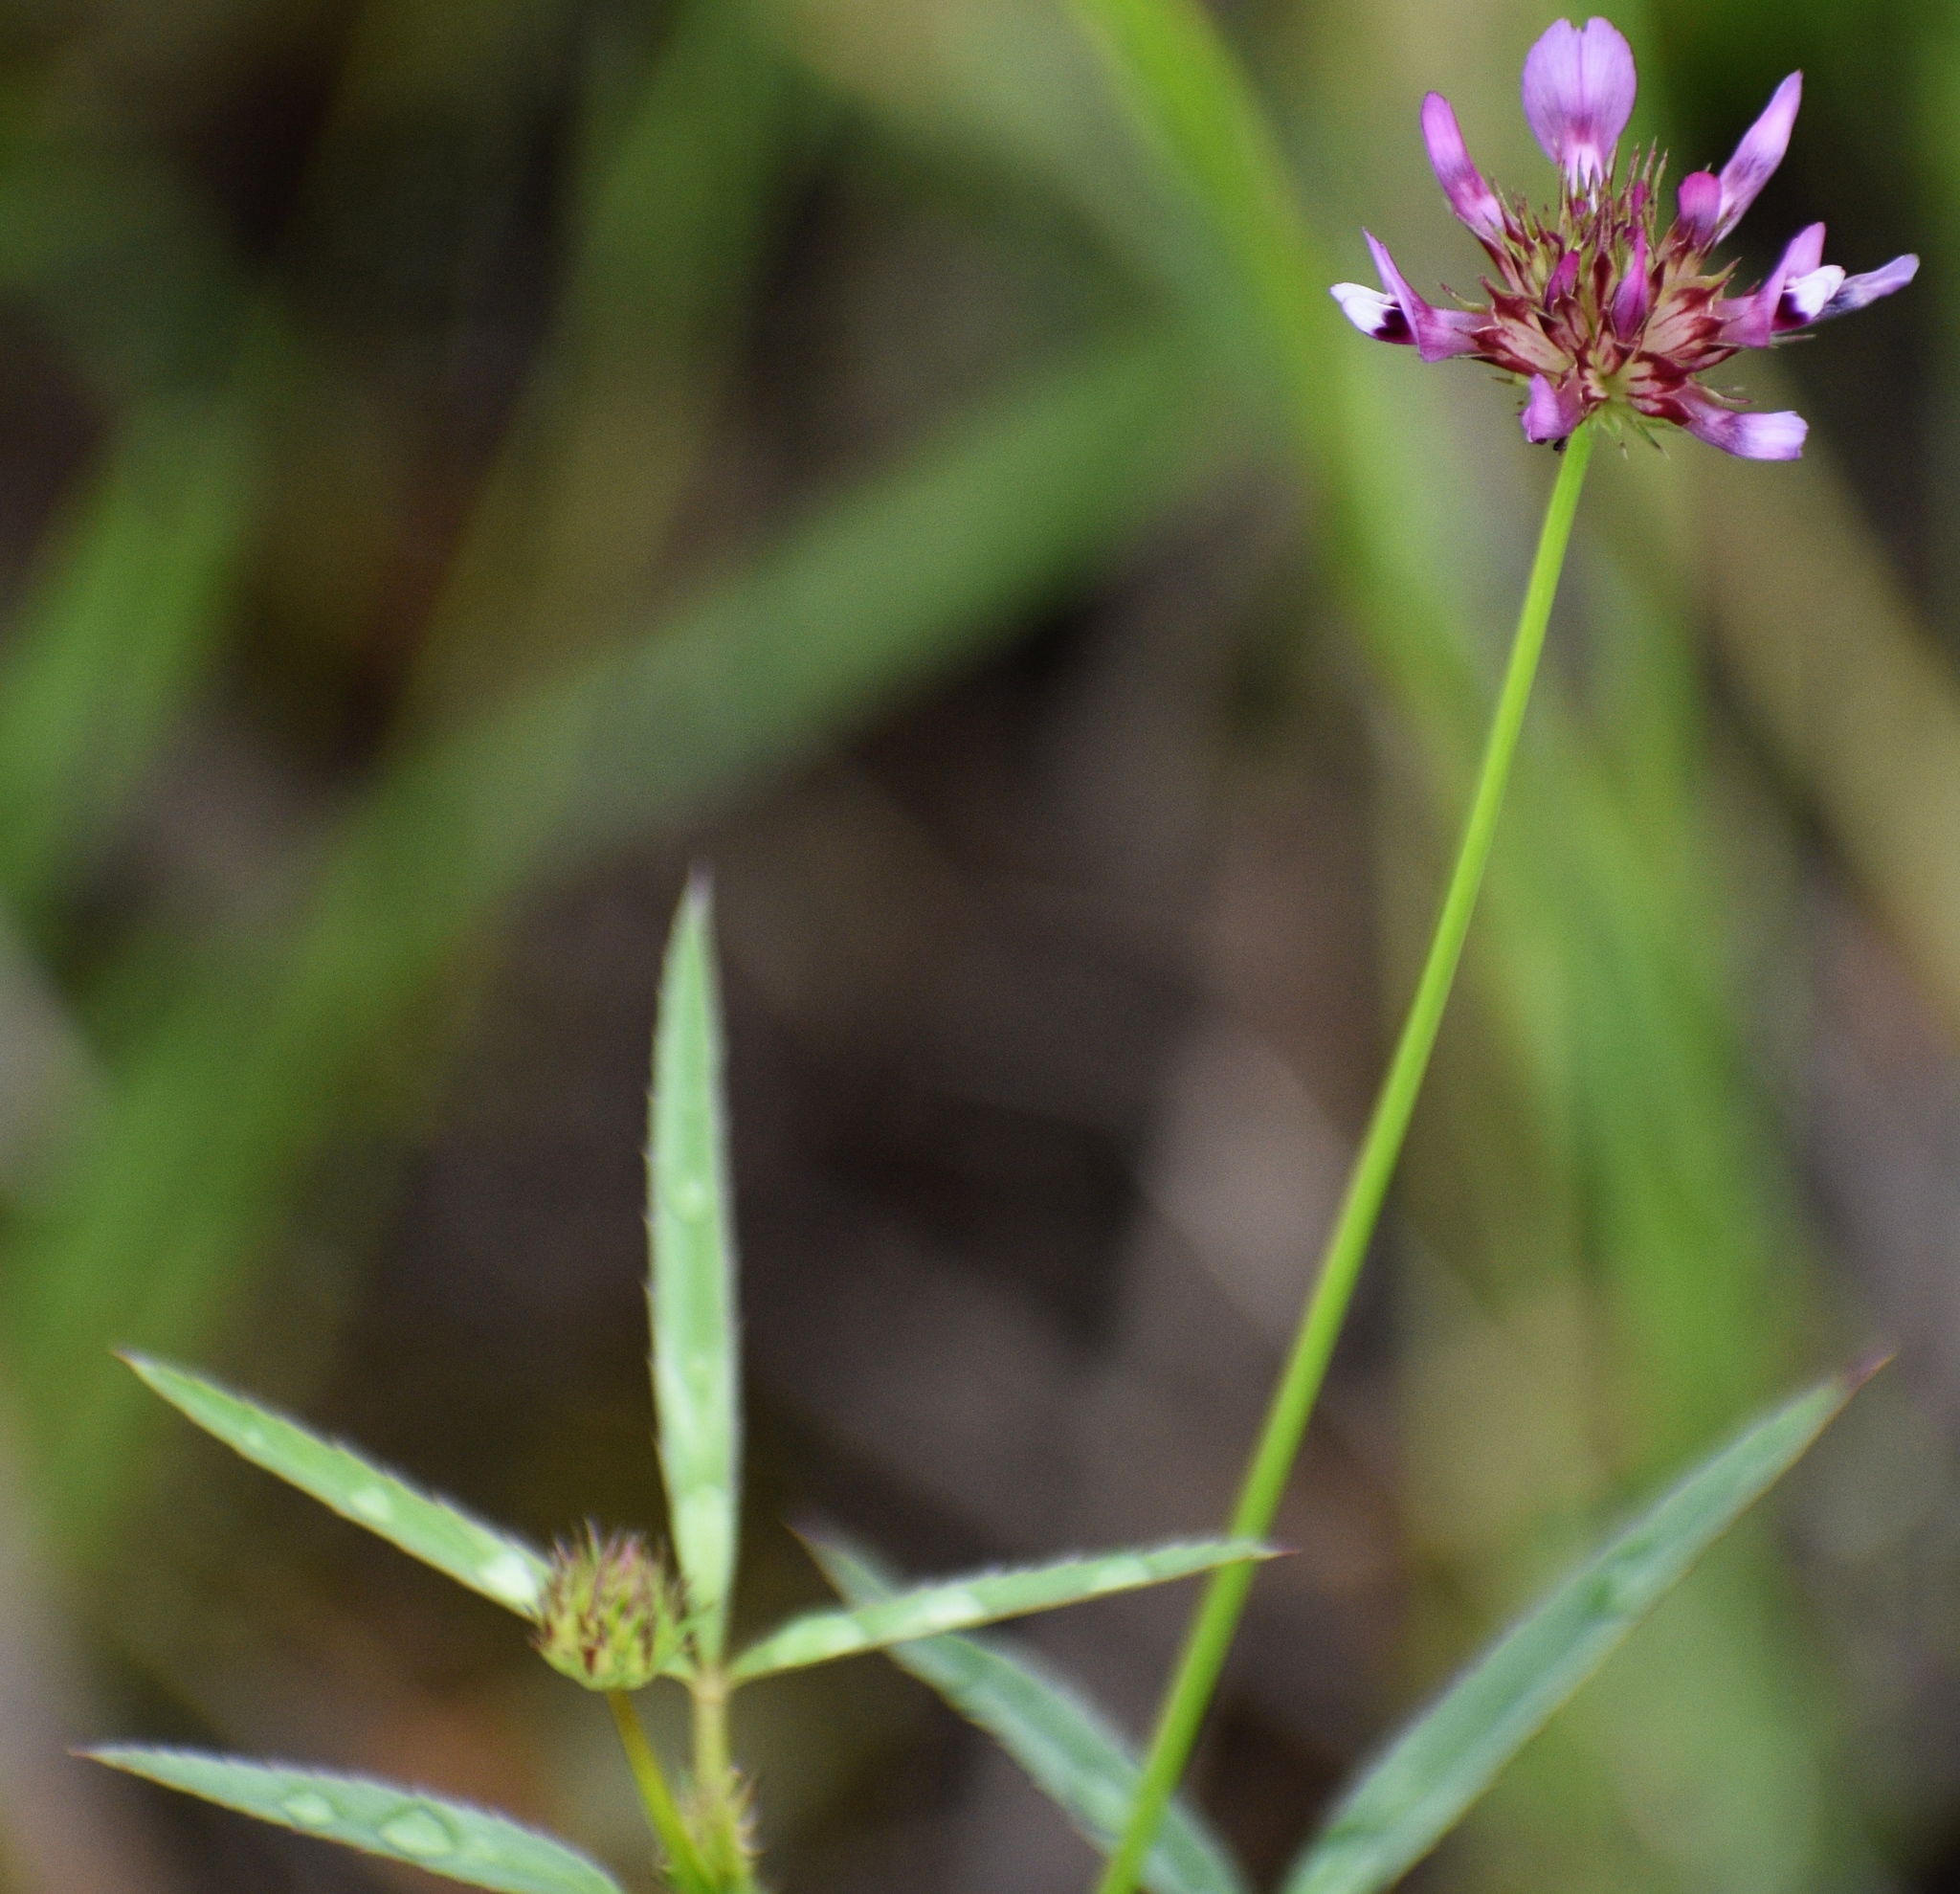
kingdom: Plantae
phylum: Tracheophyta
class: Magnoliopsida
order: Fabales
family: Fabaceae
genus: Trifolium
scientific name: Trifolium willdenovii
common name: Tomcat clover
